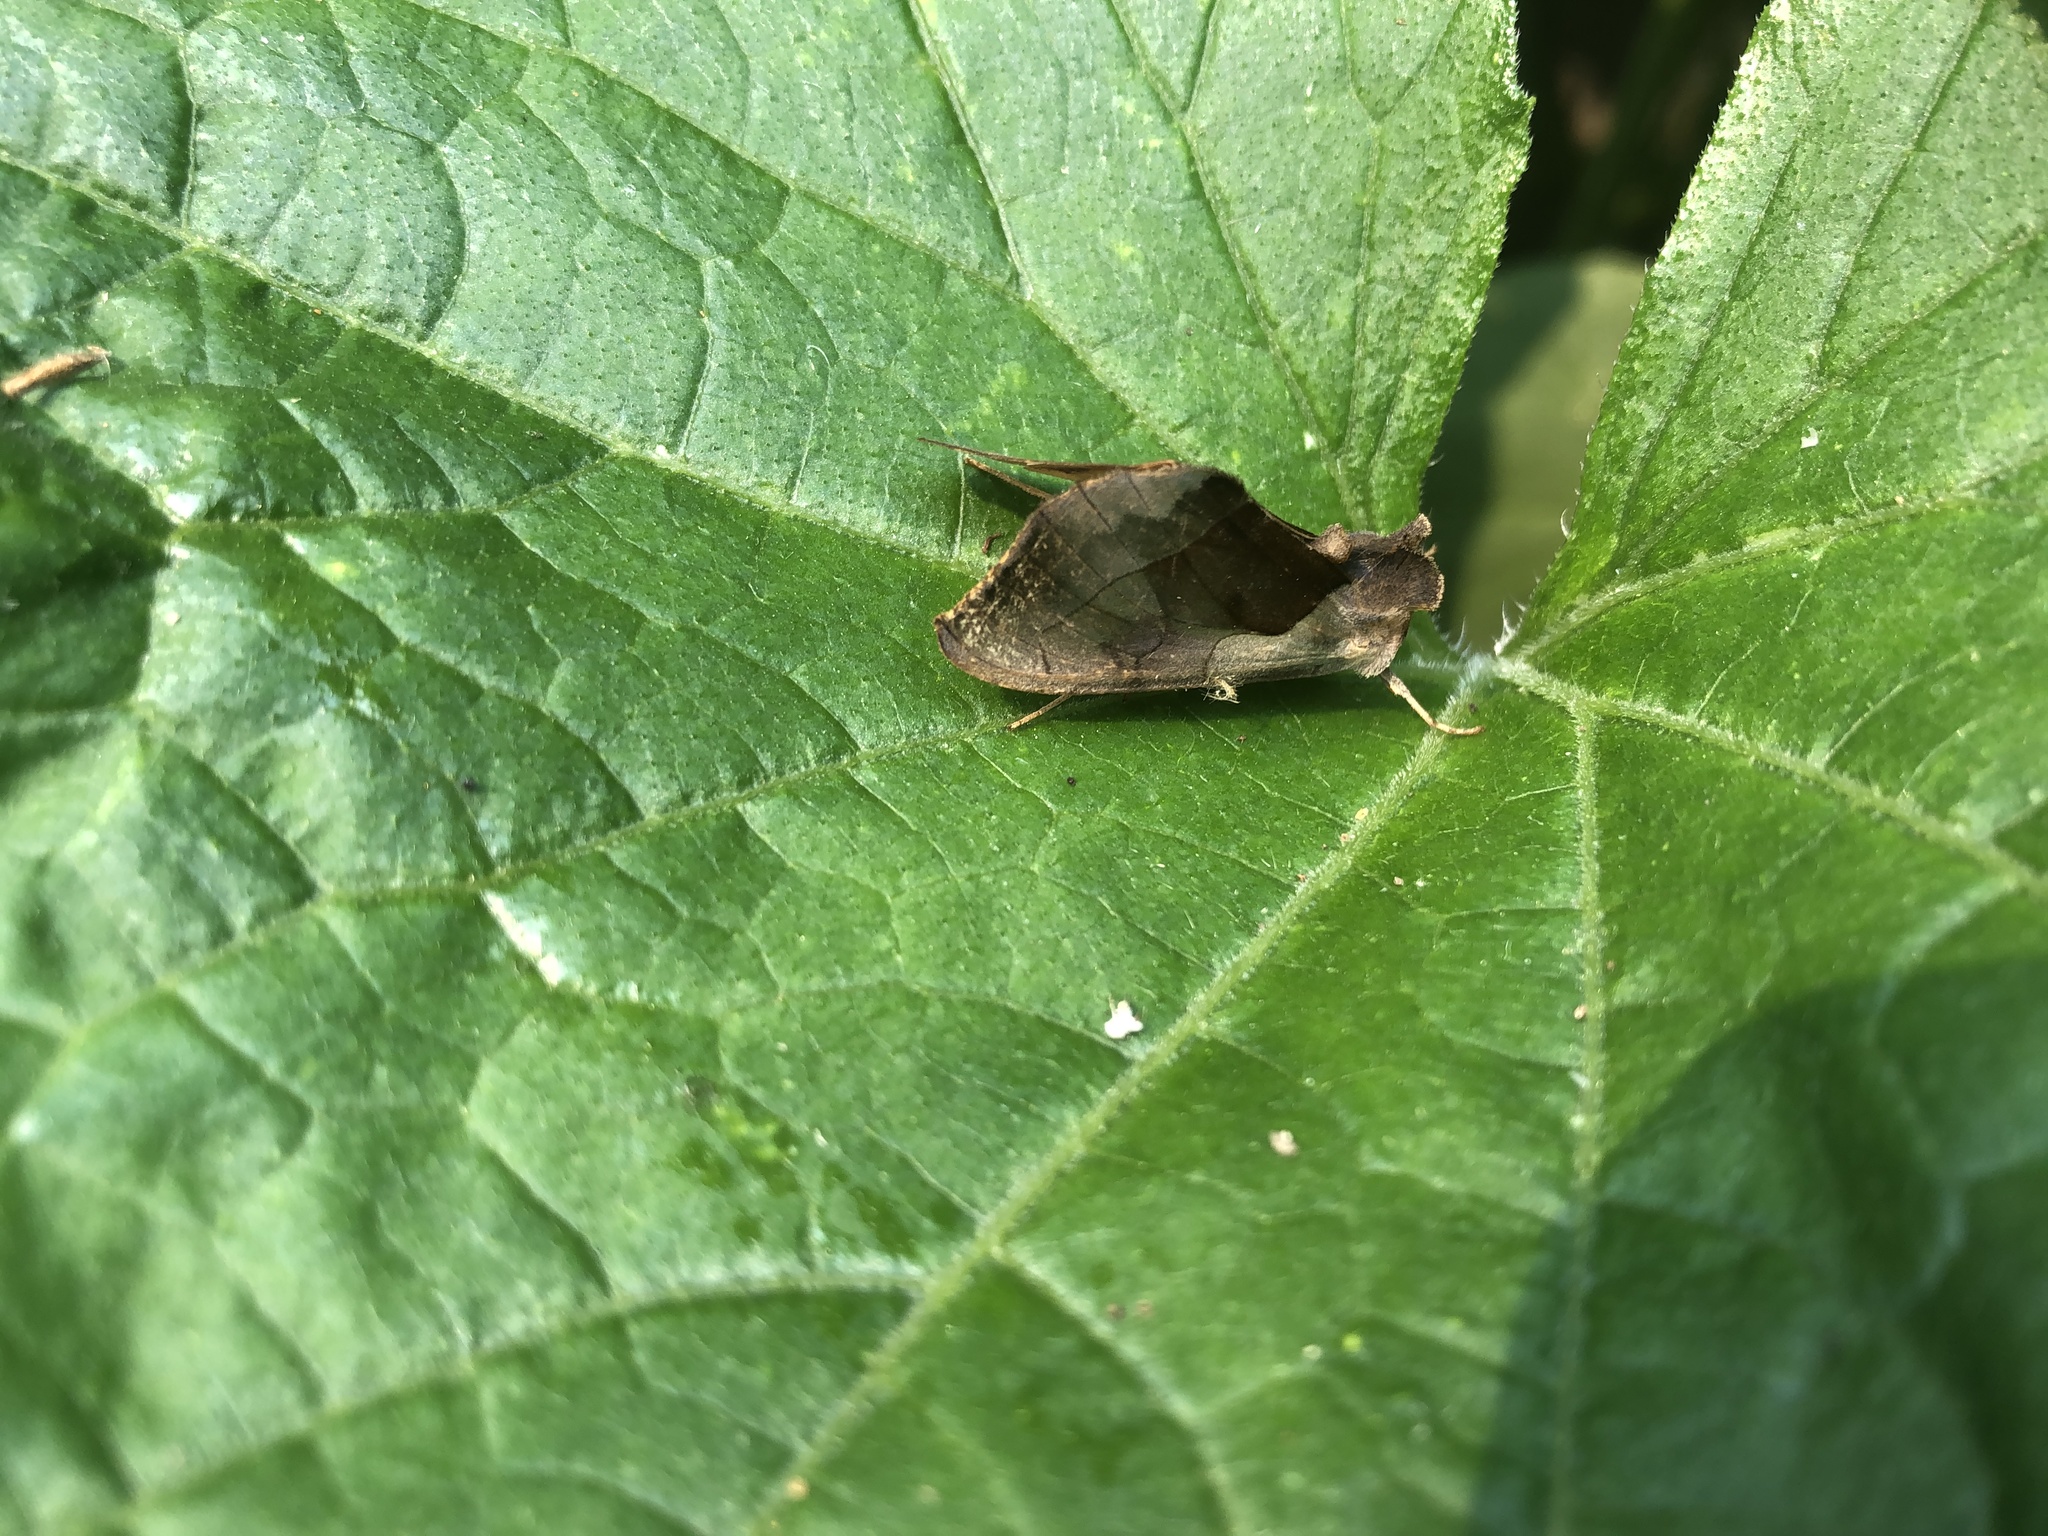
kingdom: Animalia
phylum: Arthropoda
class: Insecta
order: Lepidoptera
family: Noctuidae
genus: Diachrysia
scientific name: Diachrysia balluca
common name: Green-patched looper moth
